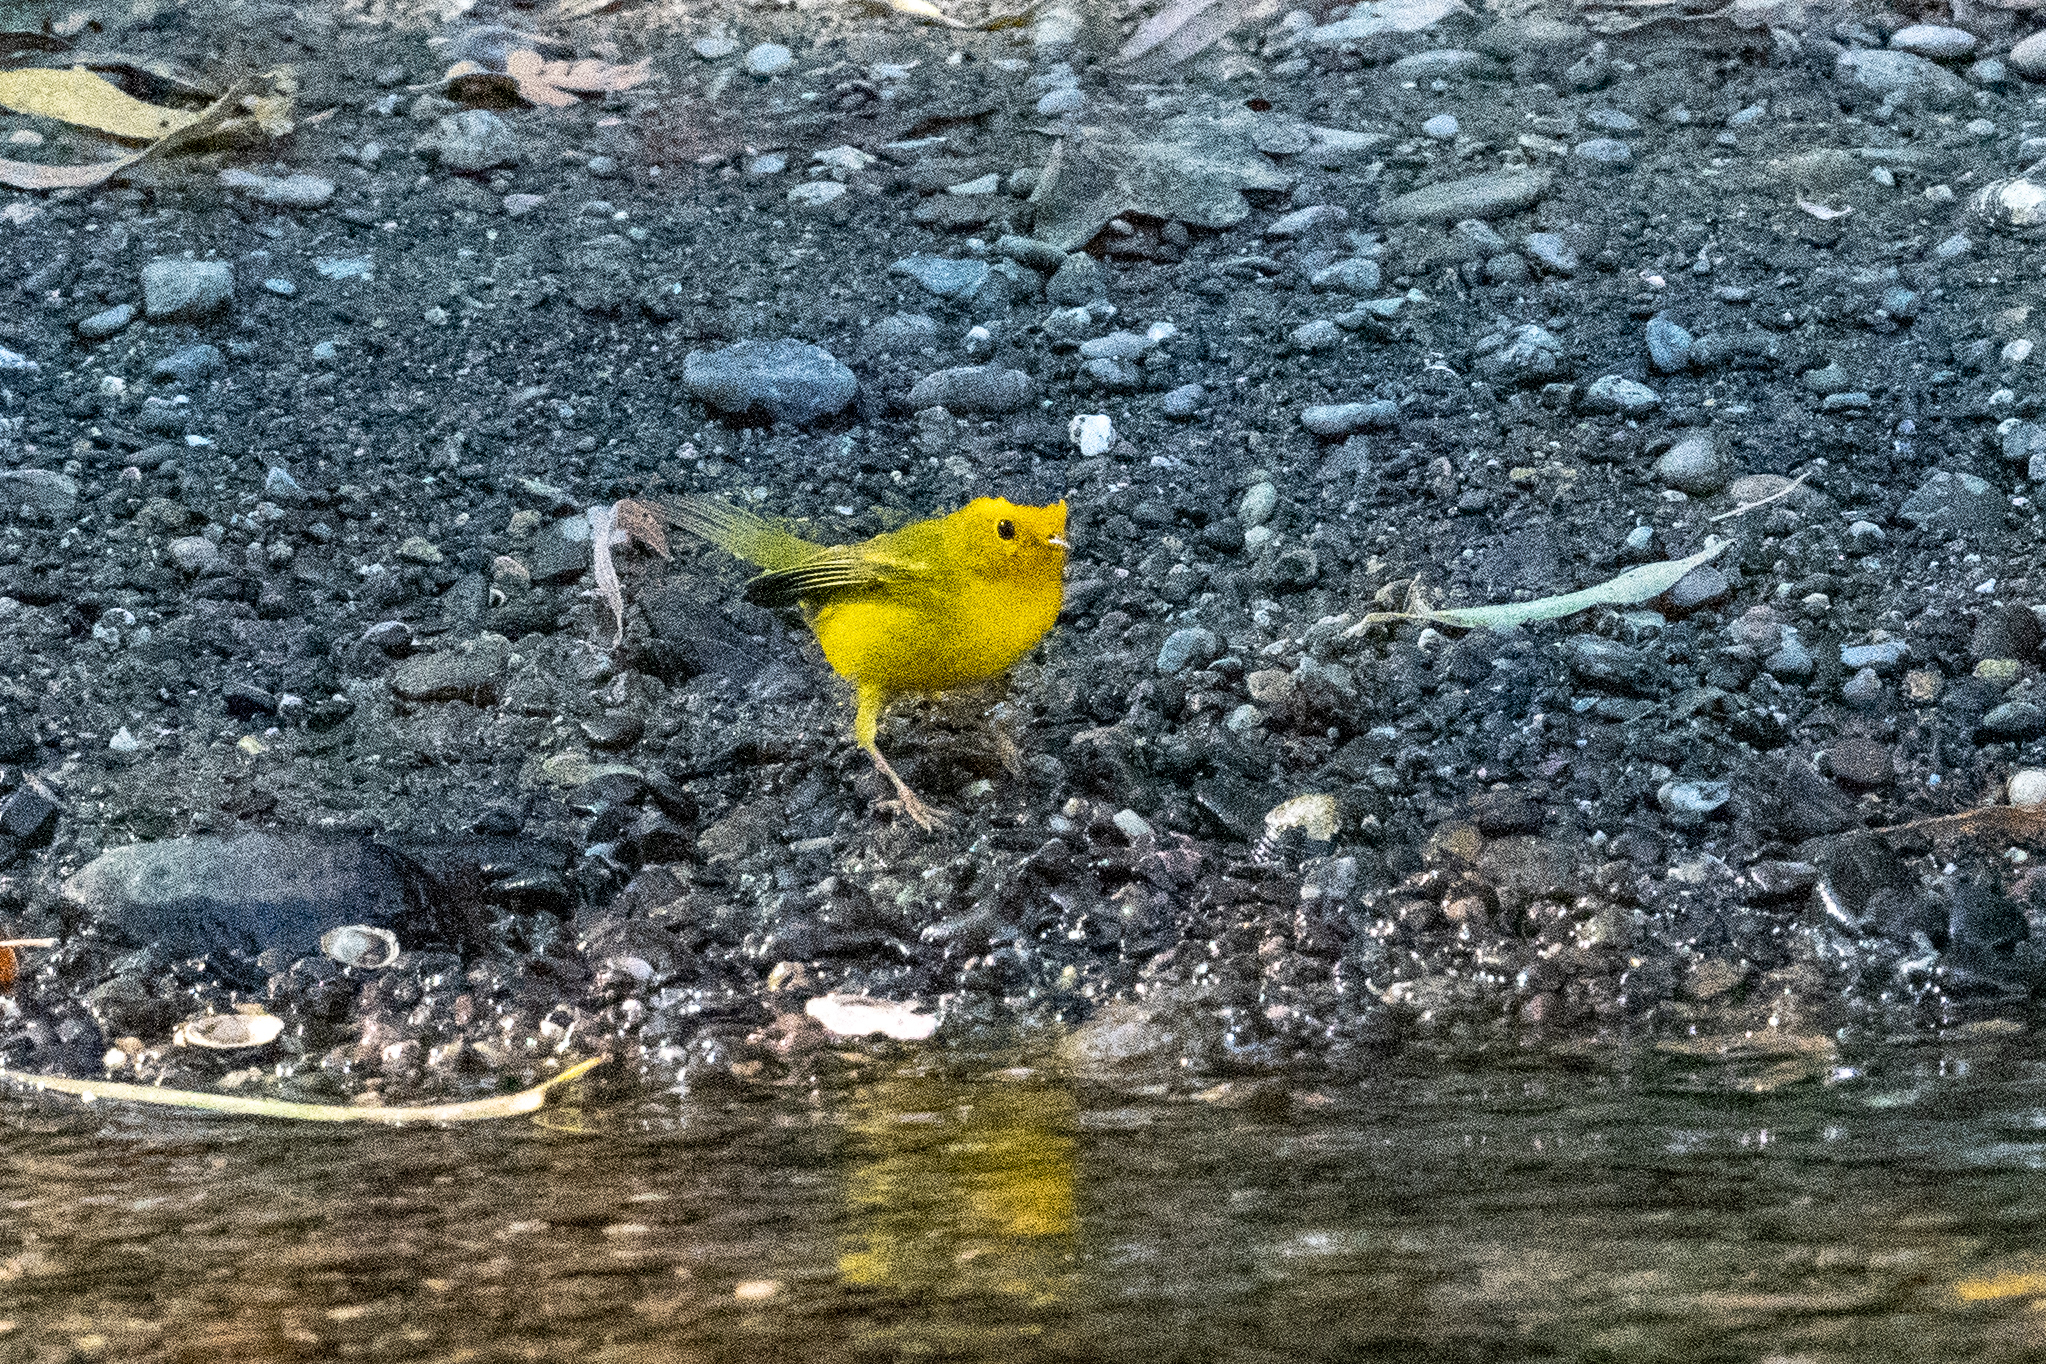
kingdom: Animalia
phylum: Chordata
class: Aves
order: Passeriformes
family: Parulidae
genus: Cardellina
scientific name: Cardellina pusilla
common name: Wilson's warbler
